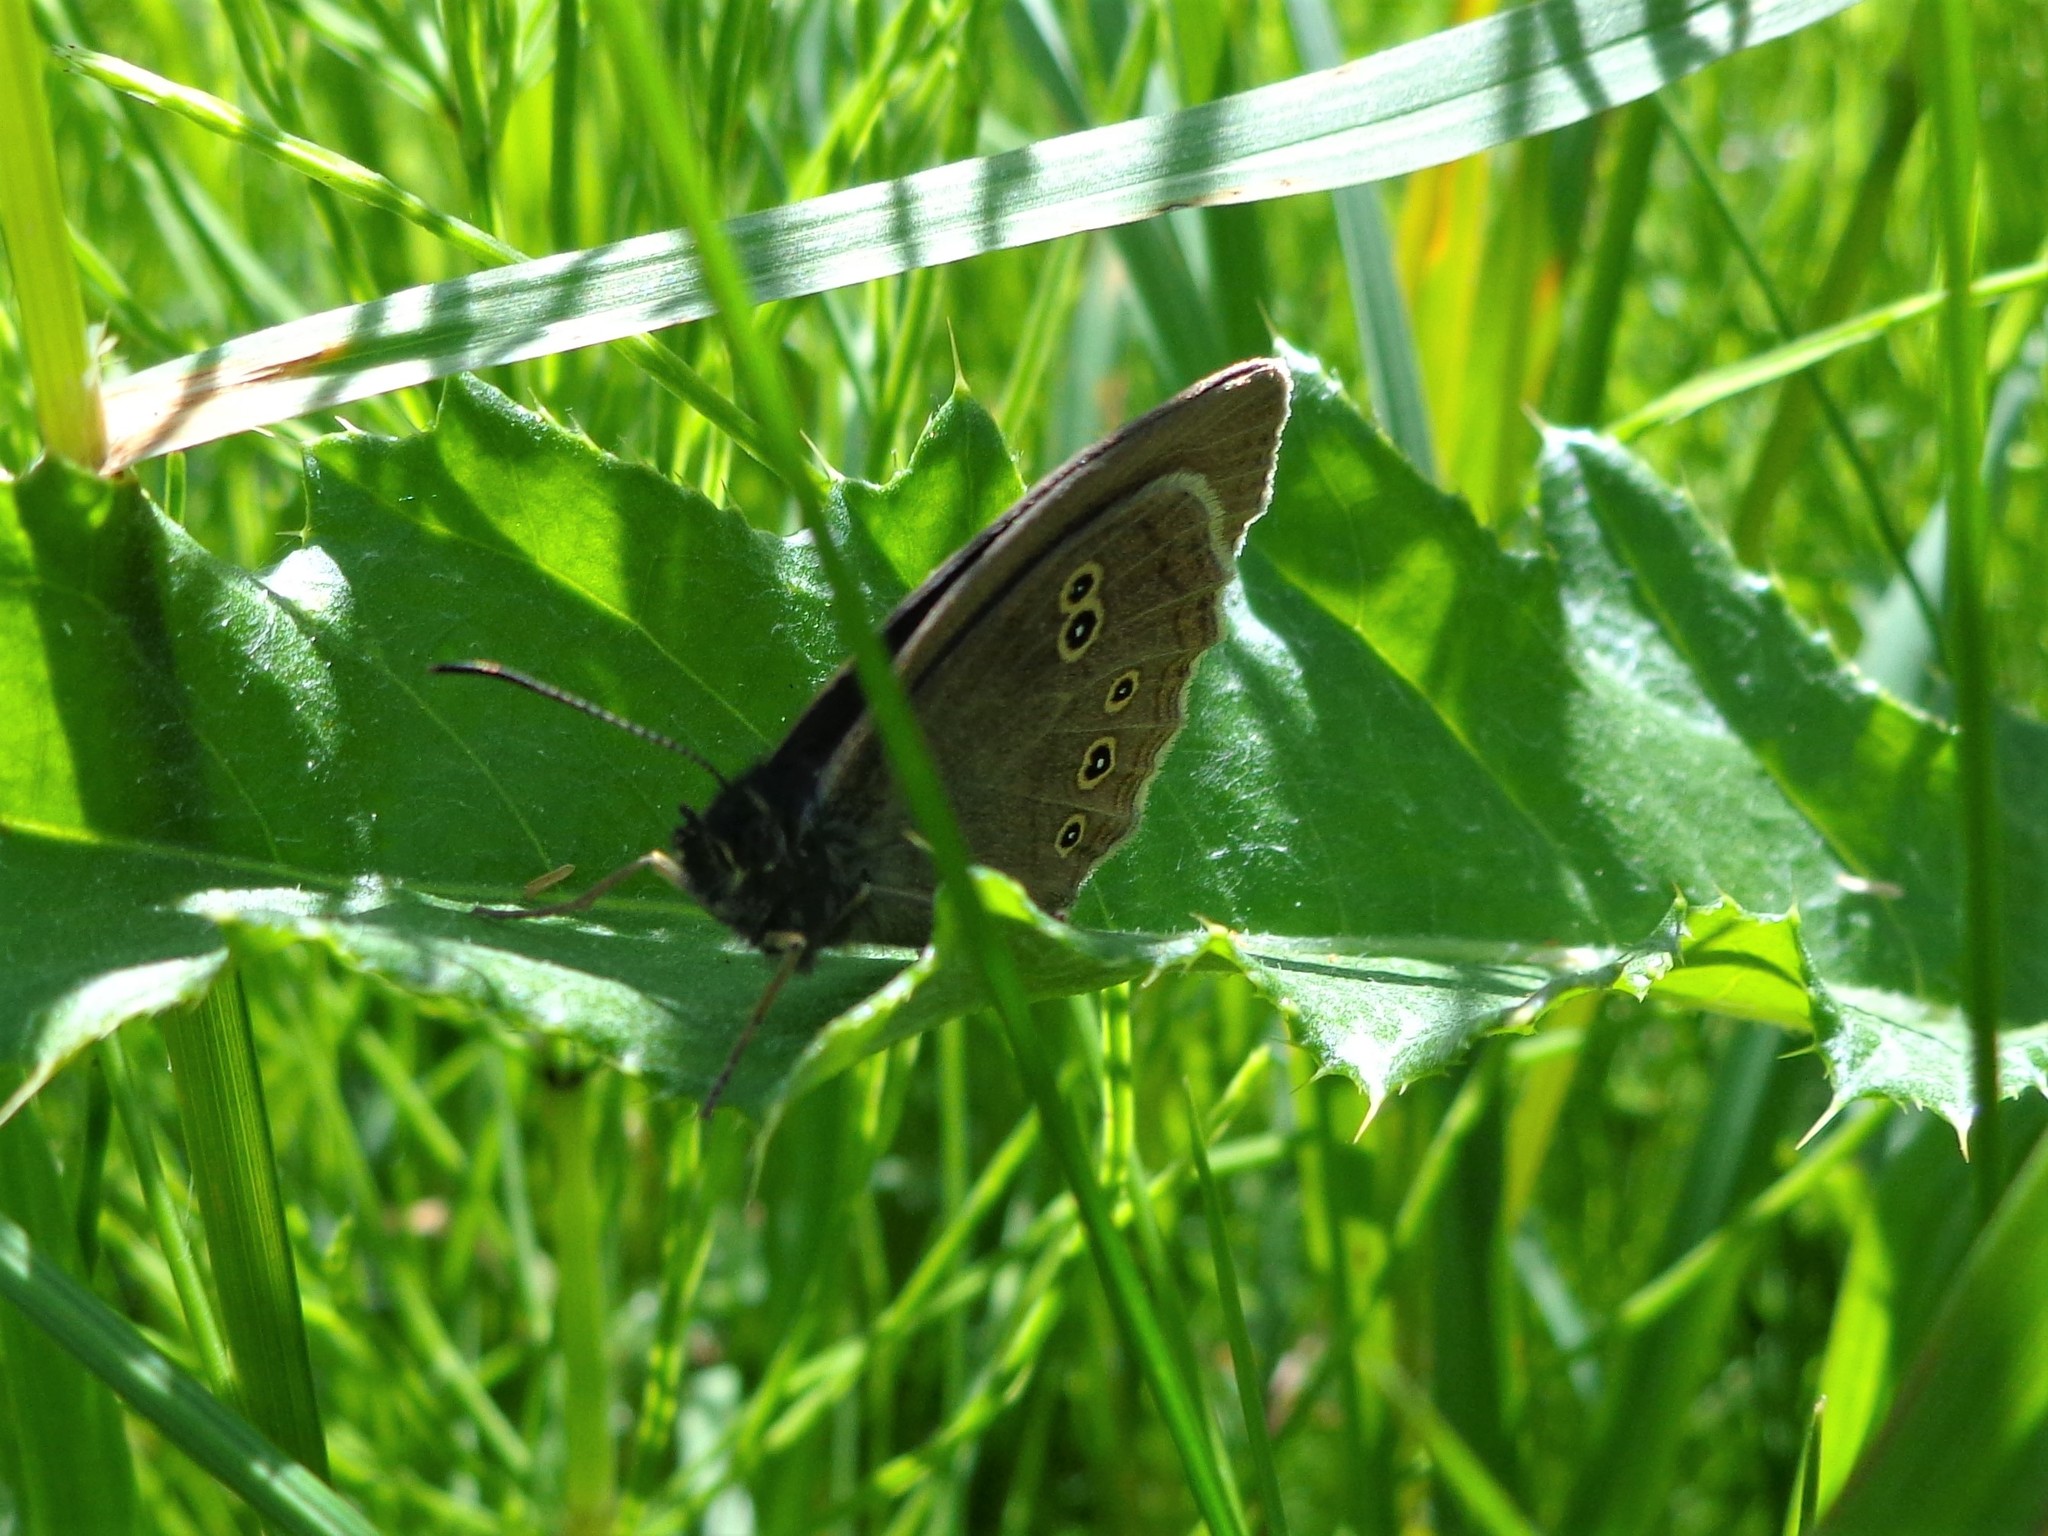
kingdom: Animalia
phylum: Arthropoda
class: Insecta
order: Lepidoptera
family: Nymphalidae
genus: Aphantopus
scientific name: Aphantopus hyperantus
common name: Ringlet
